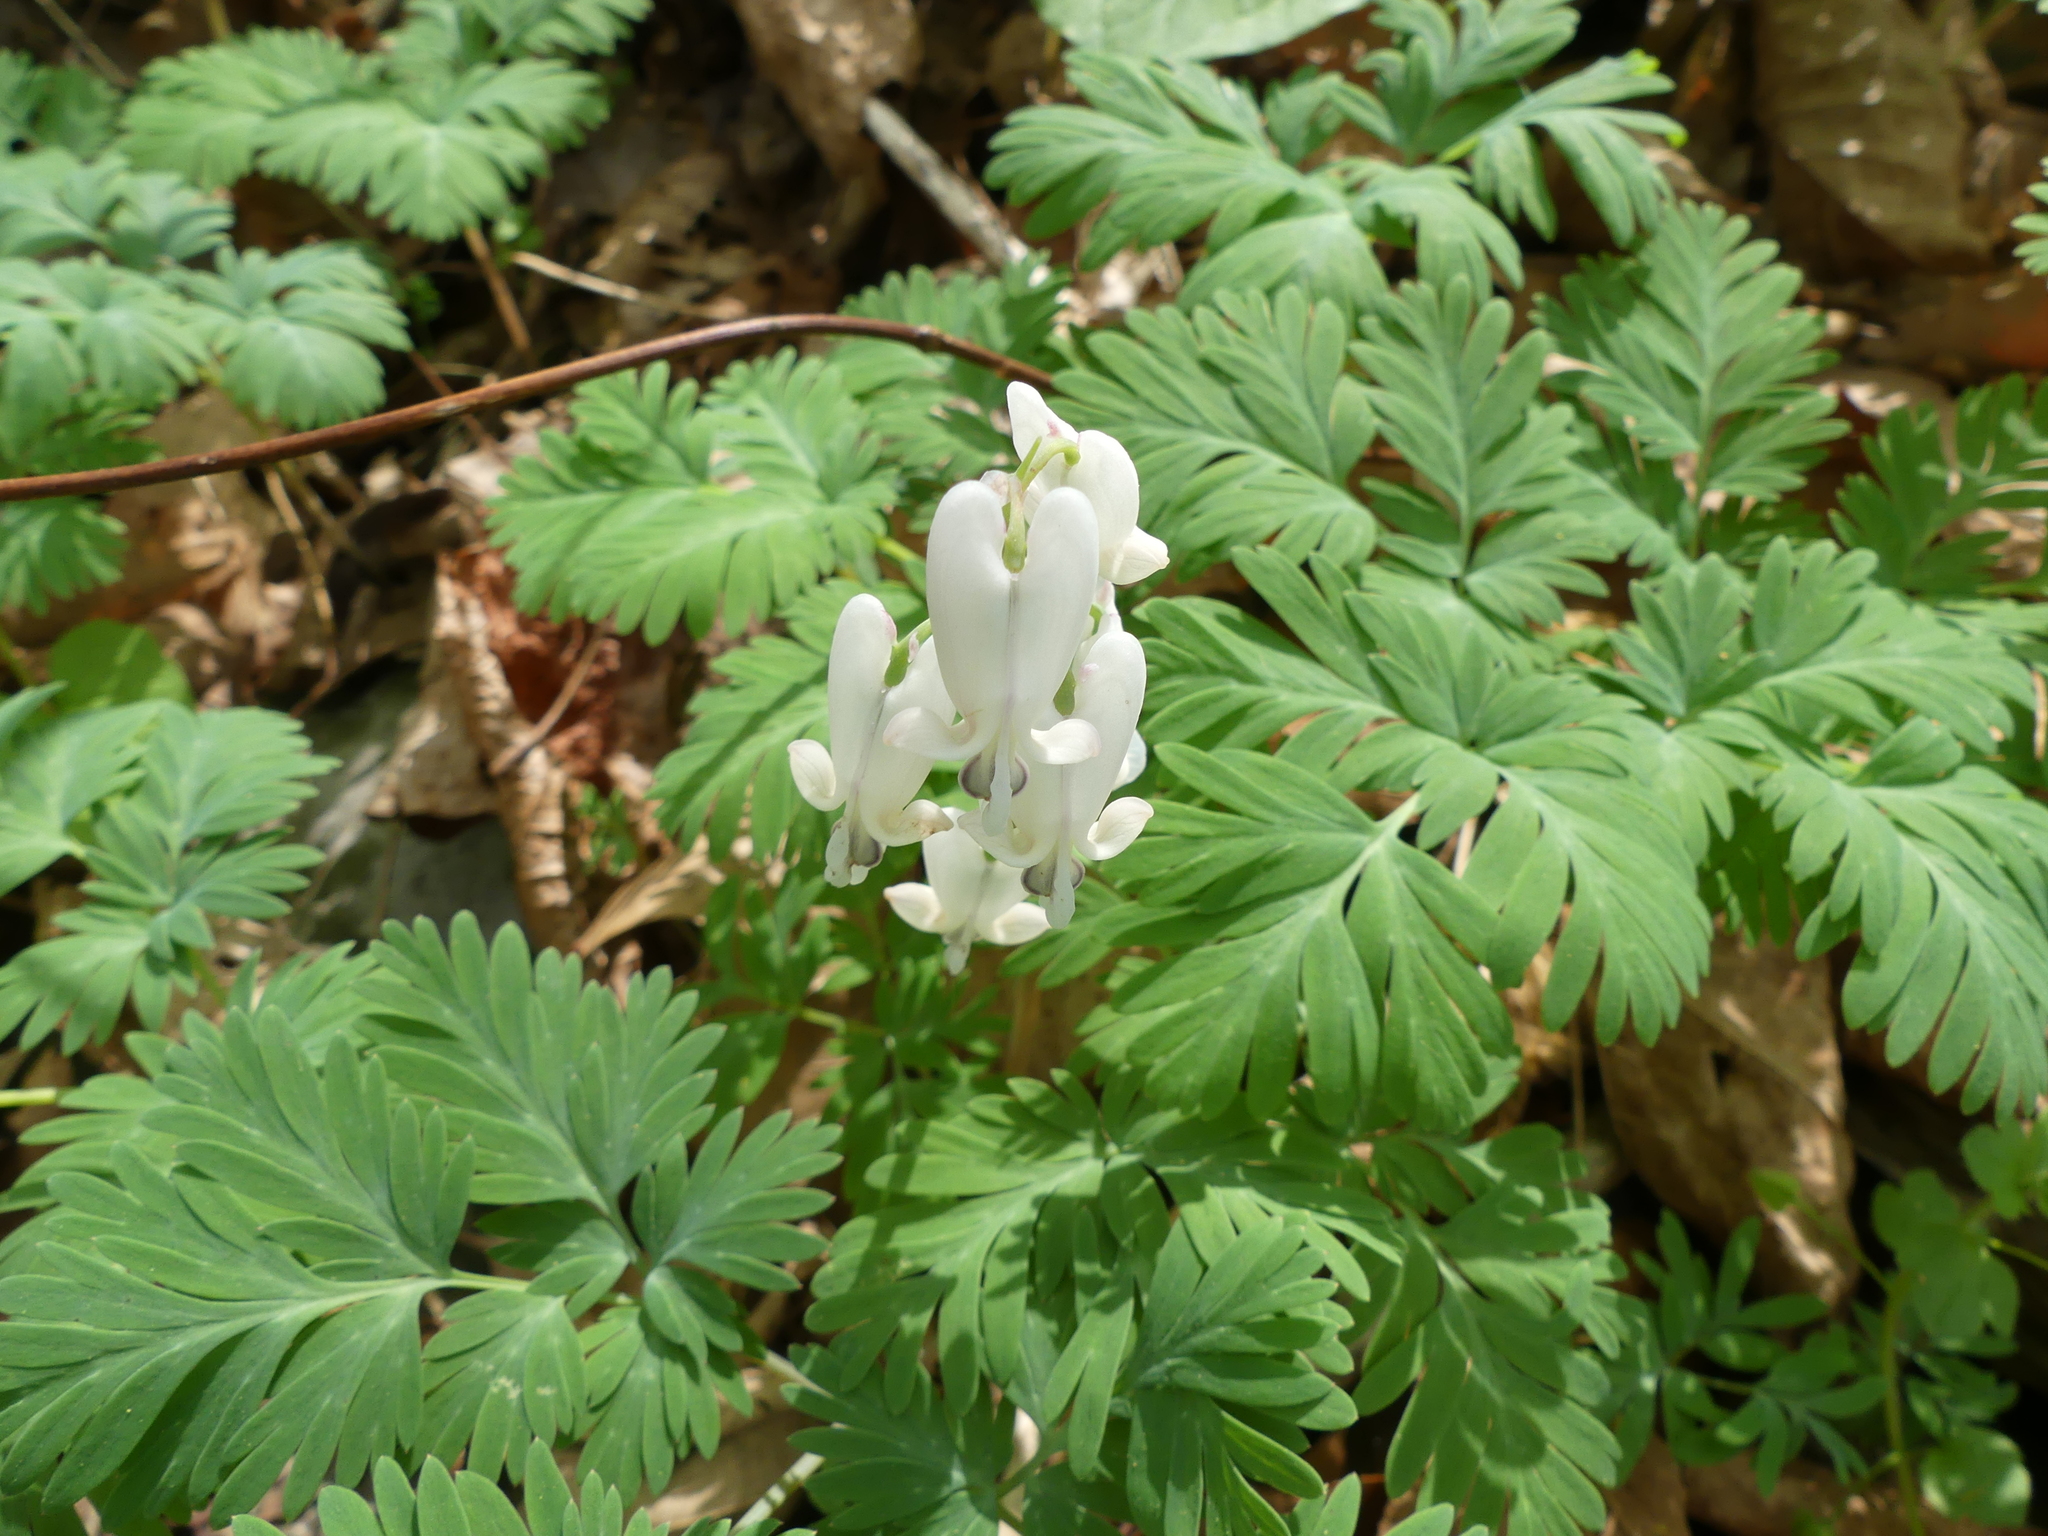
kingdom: Plantae
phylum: Tracheophyta
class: Magnoliopsida
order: Ranunculales
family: Papaveraceae
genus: Dicentra
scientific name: Dicentra canadensis
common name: Squirrel-corn
